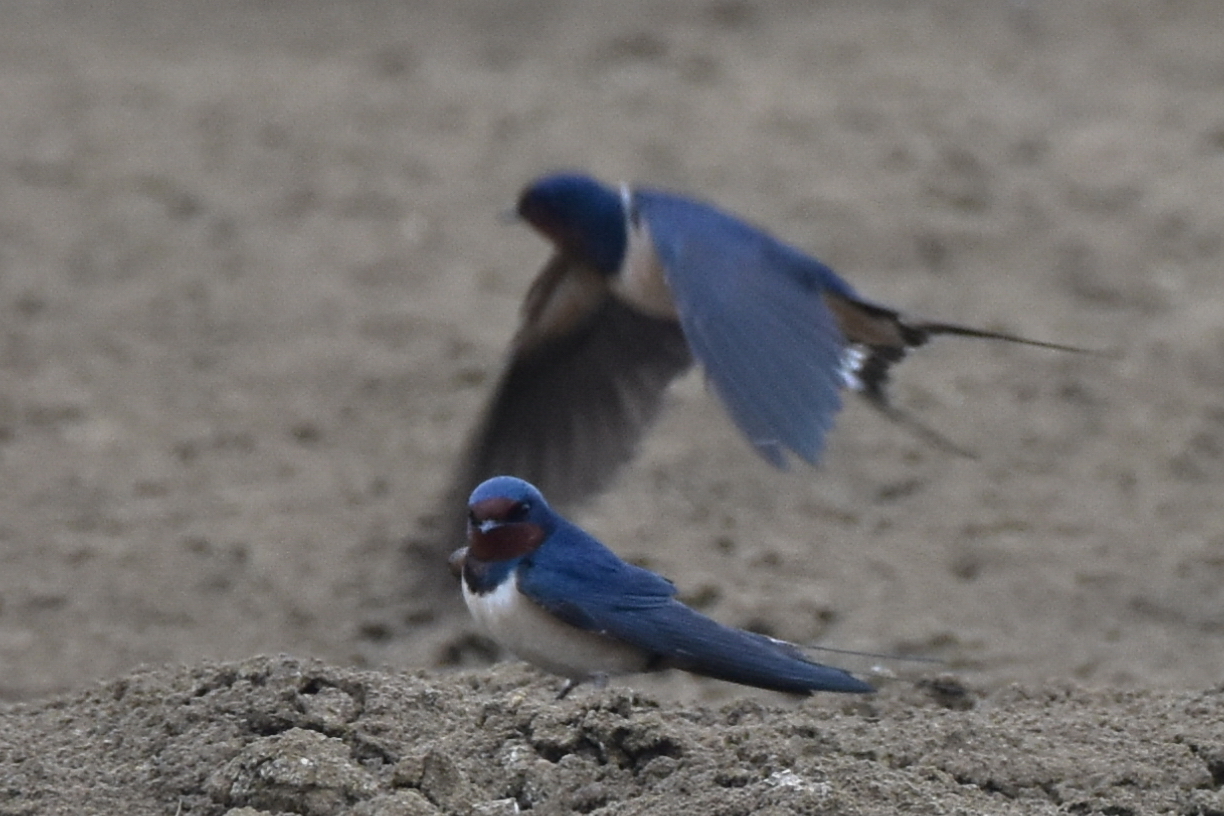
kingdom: Animalia
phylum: Chordata
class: Aves
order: Passeriformes
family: Hirundinidae
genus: Hirundo
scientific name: Hirundo rustica
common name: Barn swallow
